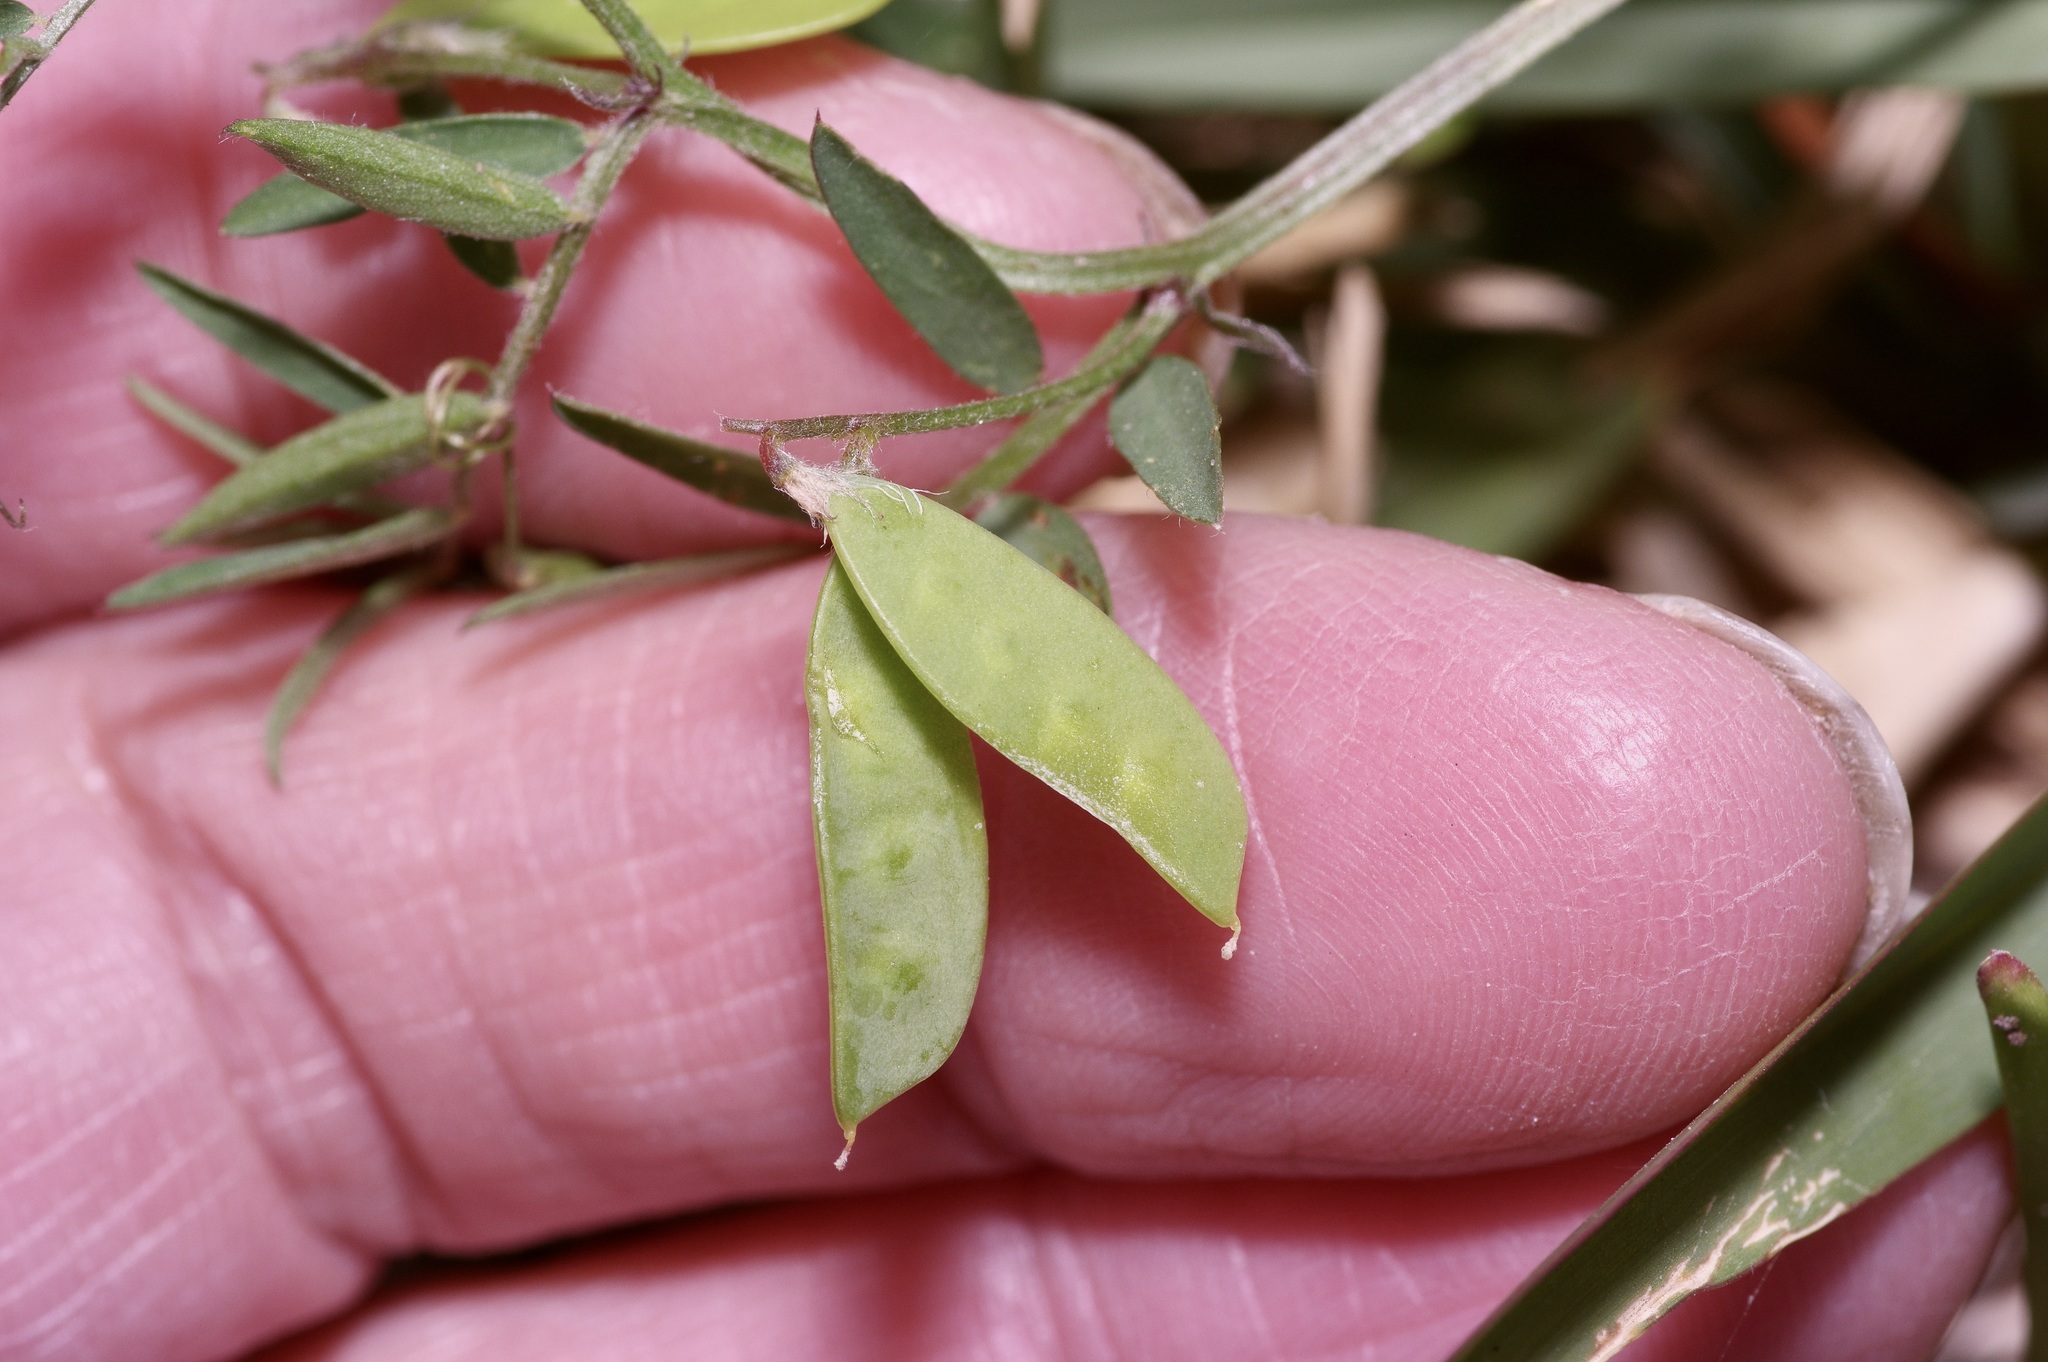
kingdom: Plantae
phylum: Tracheophyta
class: Magnoliopsida
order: Fabales
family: Fabaceae
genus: Vicia
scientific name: Vicia ludoviciana
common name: Louisiana vetch
